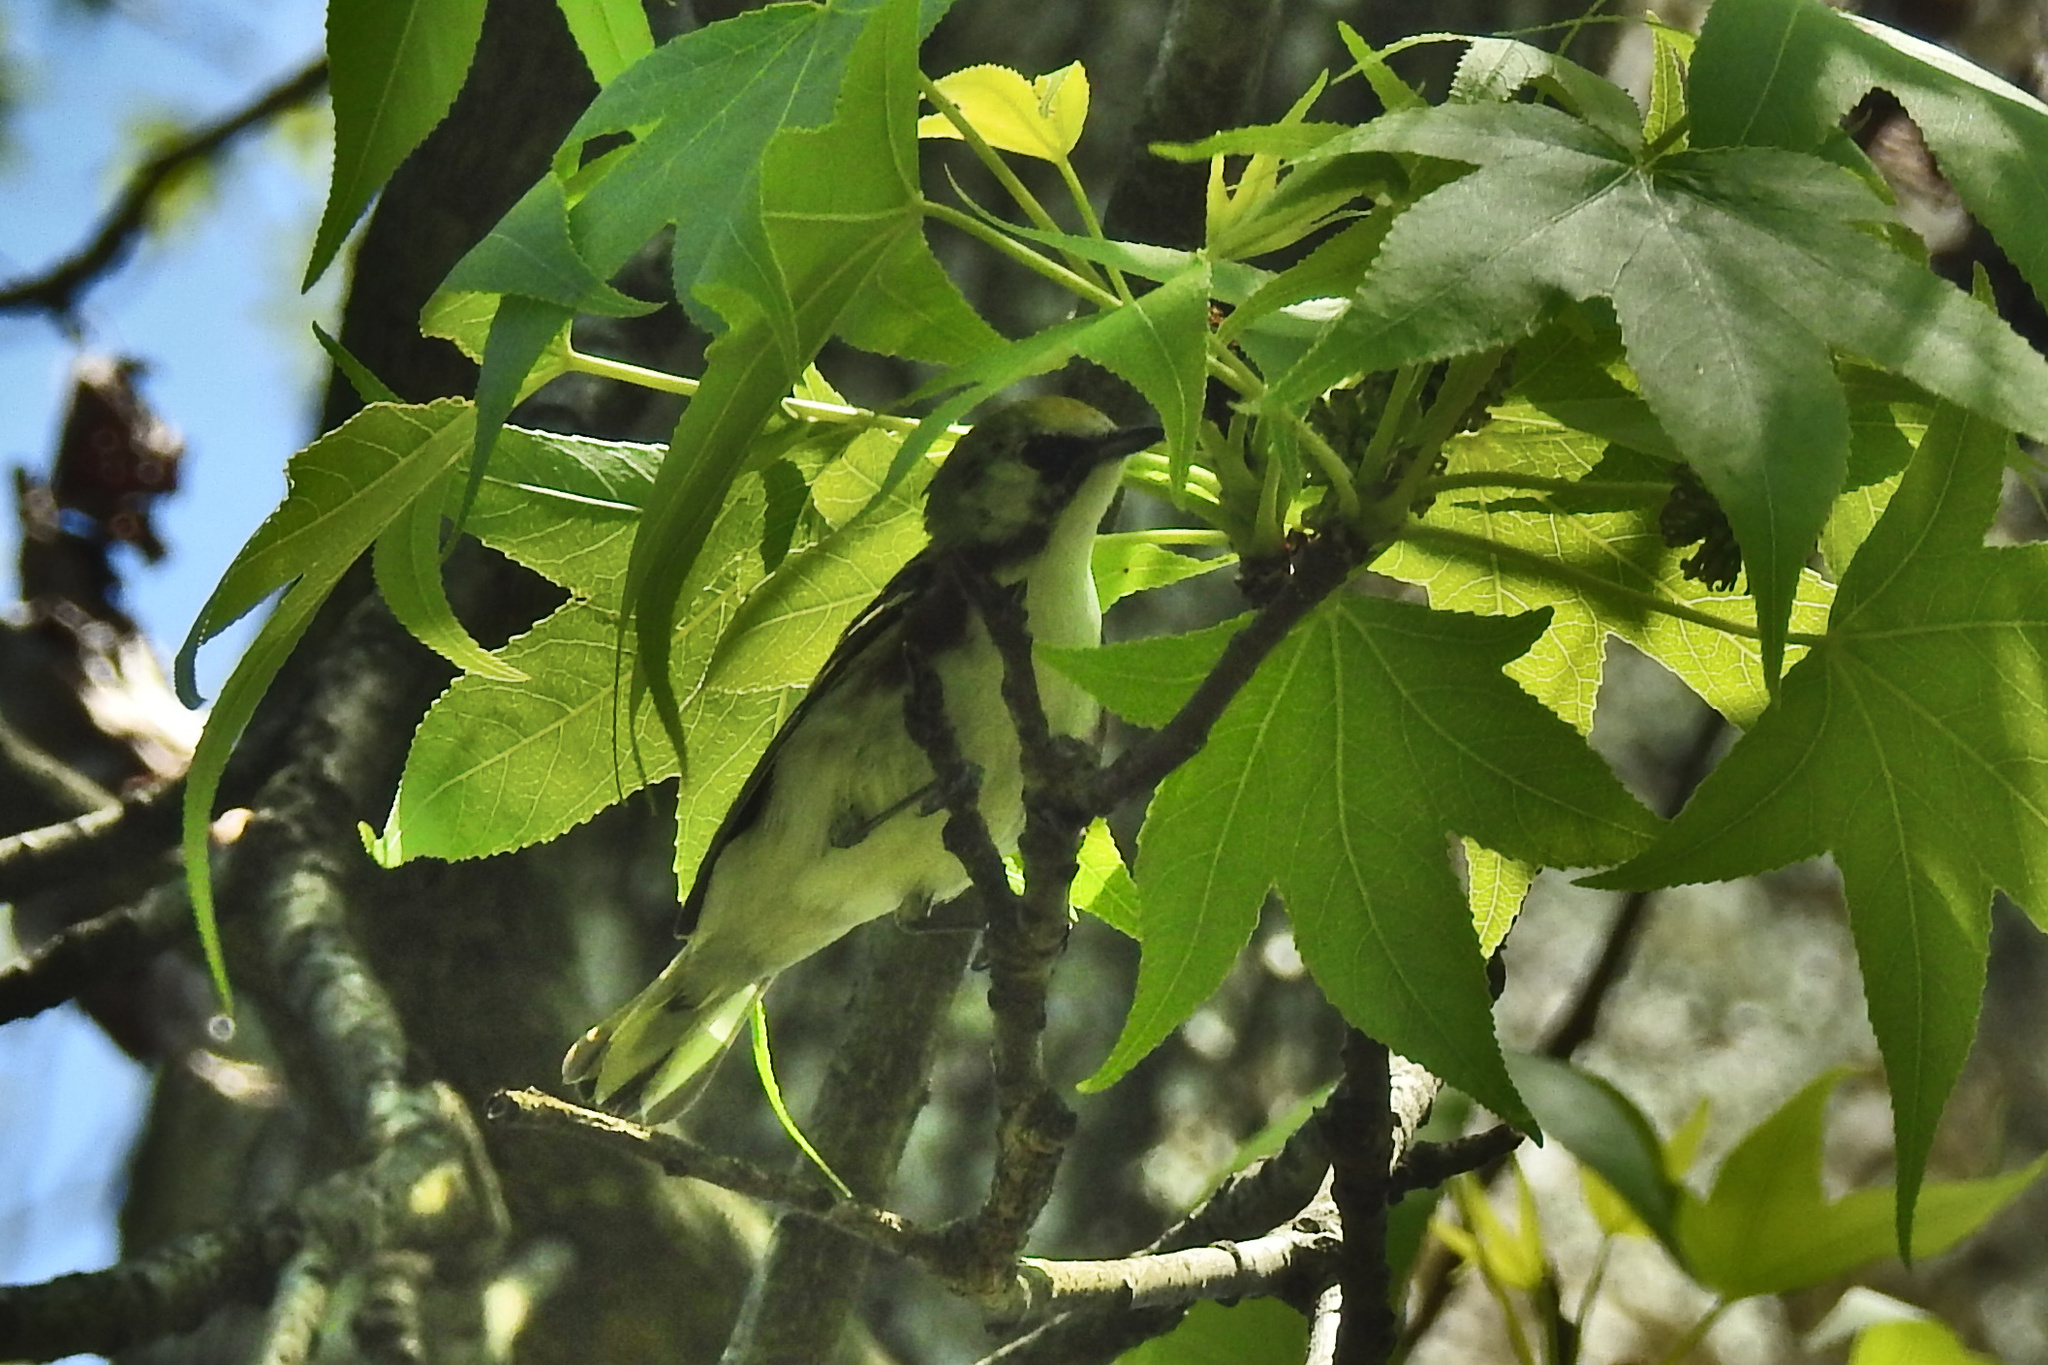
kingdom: Animalia
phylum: Chordata
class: Aves
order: Passeriformes
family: Parulidae
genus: Setophaga
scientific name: Setophaga pensylvanica
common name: Chestnut-sided warbler
